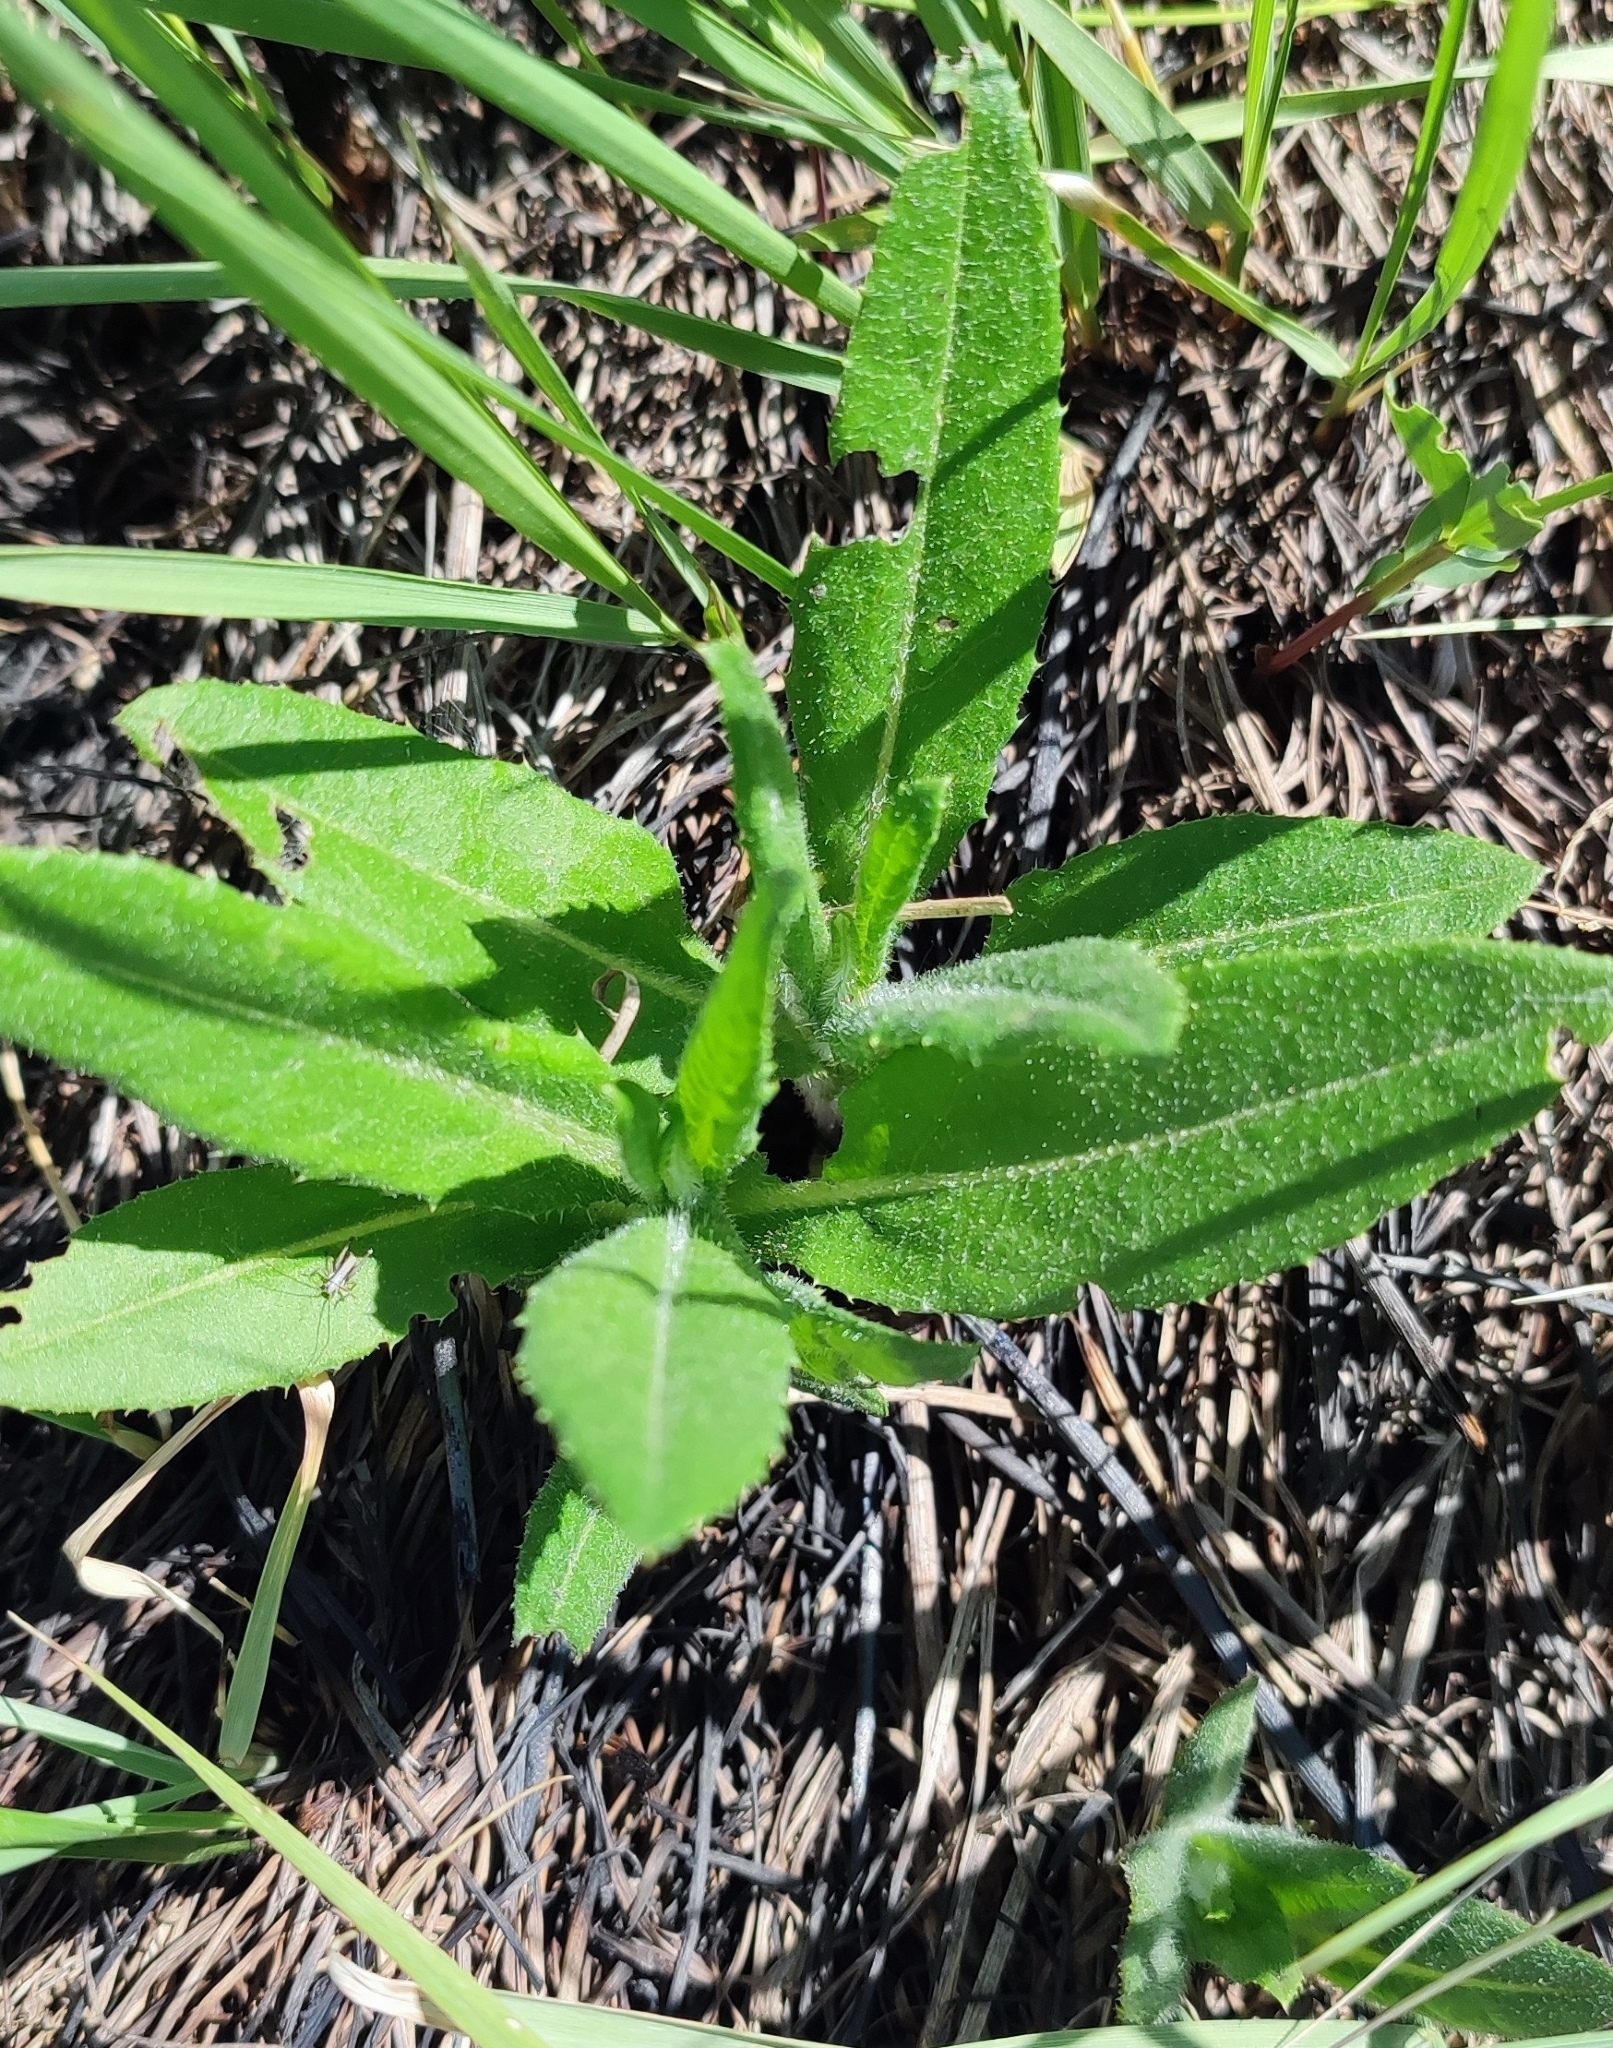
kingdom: Plantae
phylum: Tracheophyta
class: Magnoliopsida
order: Asterales
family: Asteraceae
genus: Cirsium
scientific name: Cirsium arvense
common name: Creeping thistle
